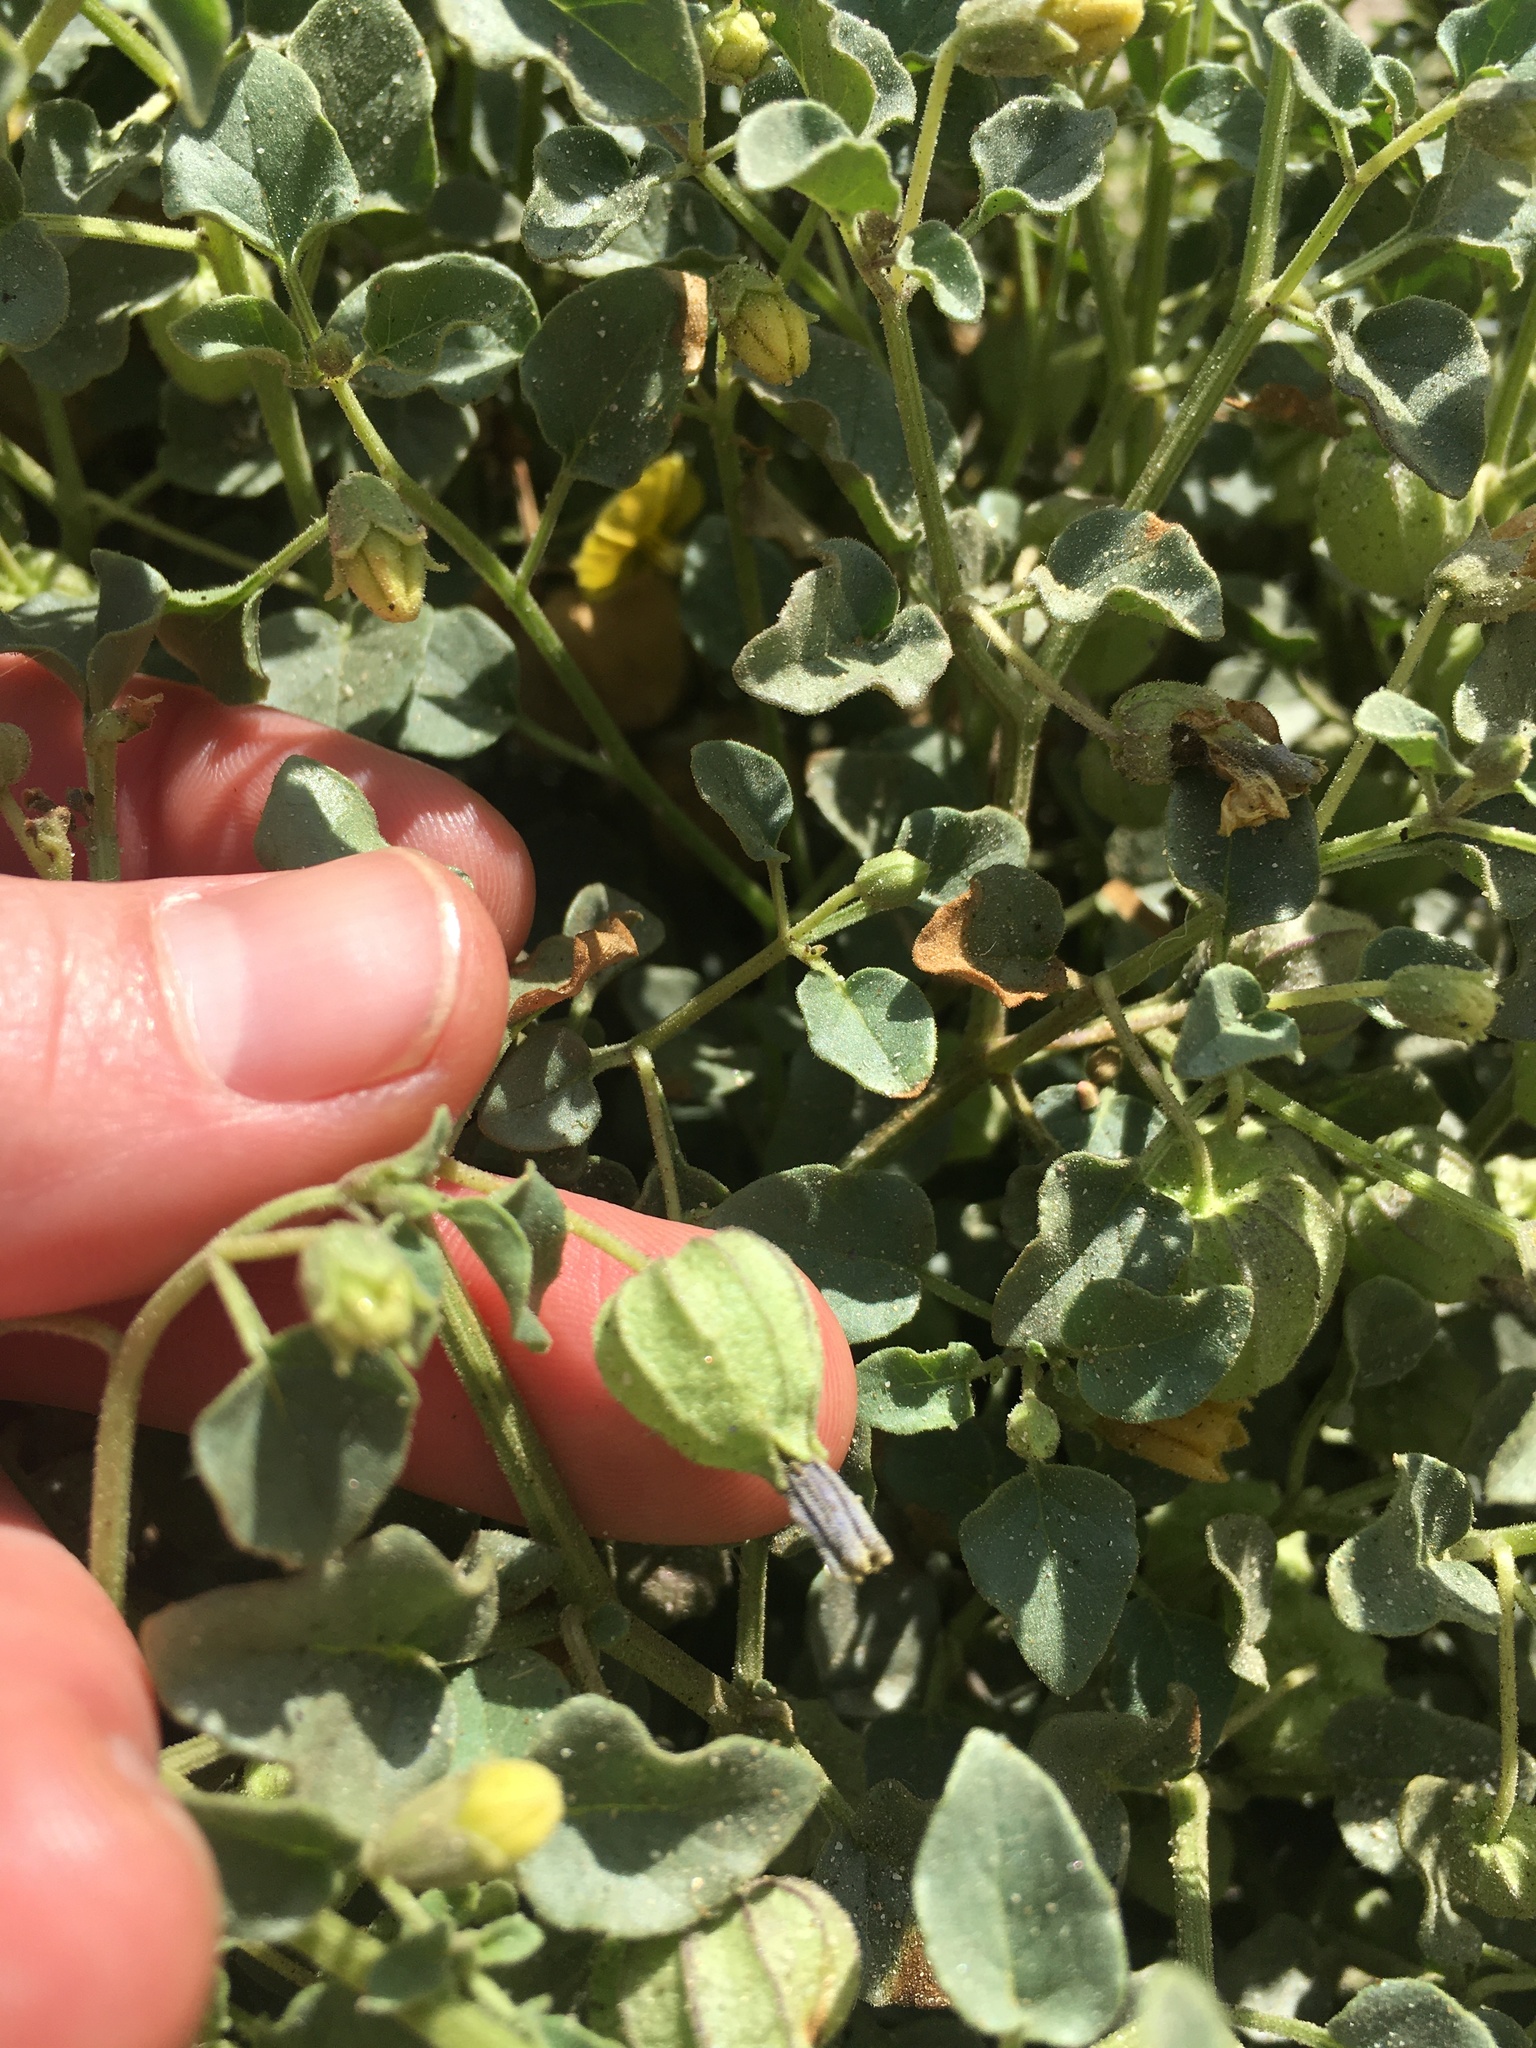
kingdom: Plantae
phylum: Tracheophyta
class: Magnoliopsida
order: Solanales
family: Solanaceae
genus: Physalis
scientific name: Physalis crassifolia
